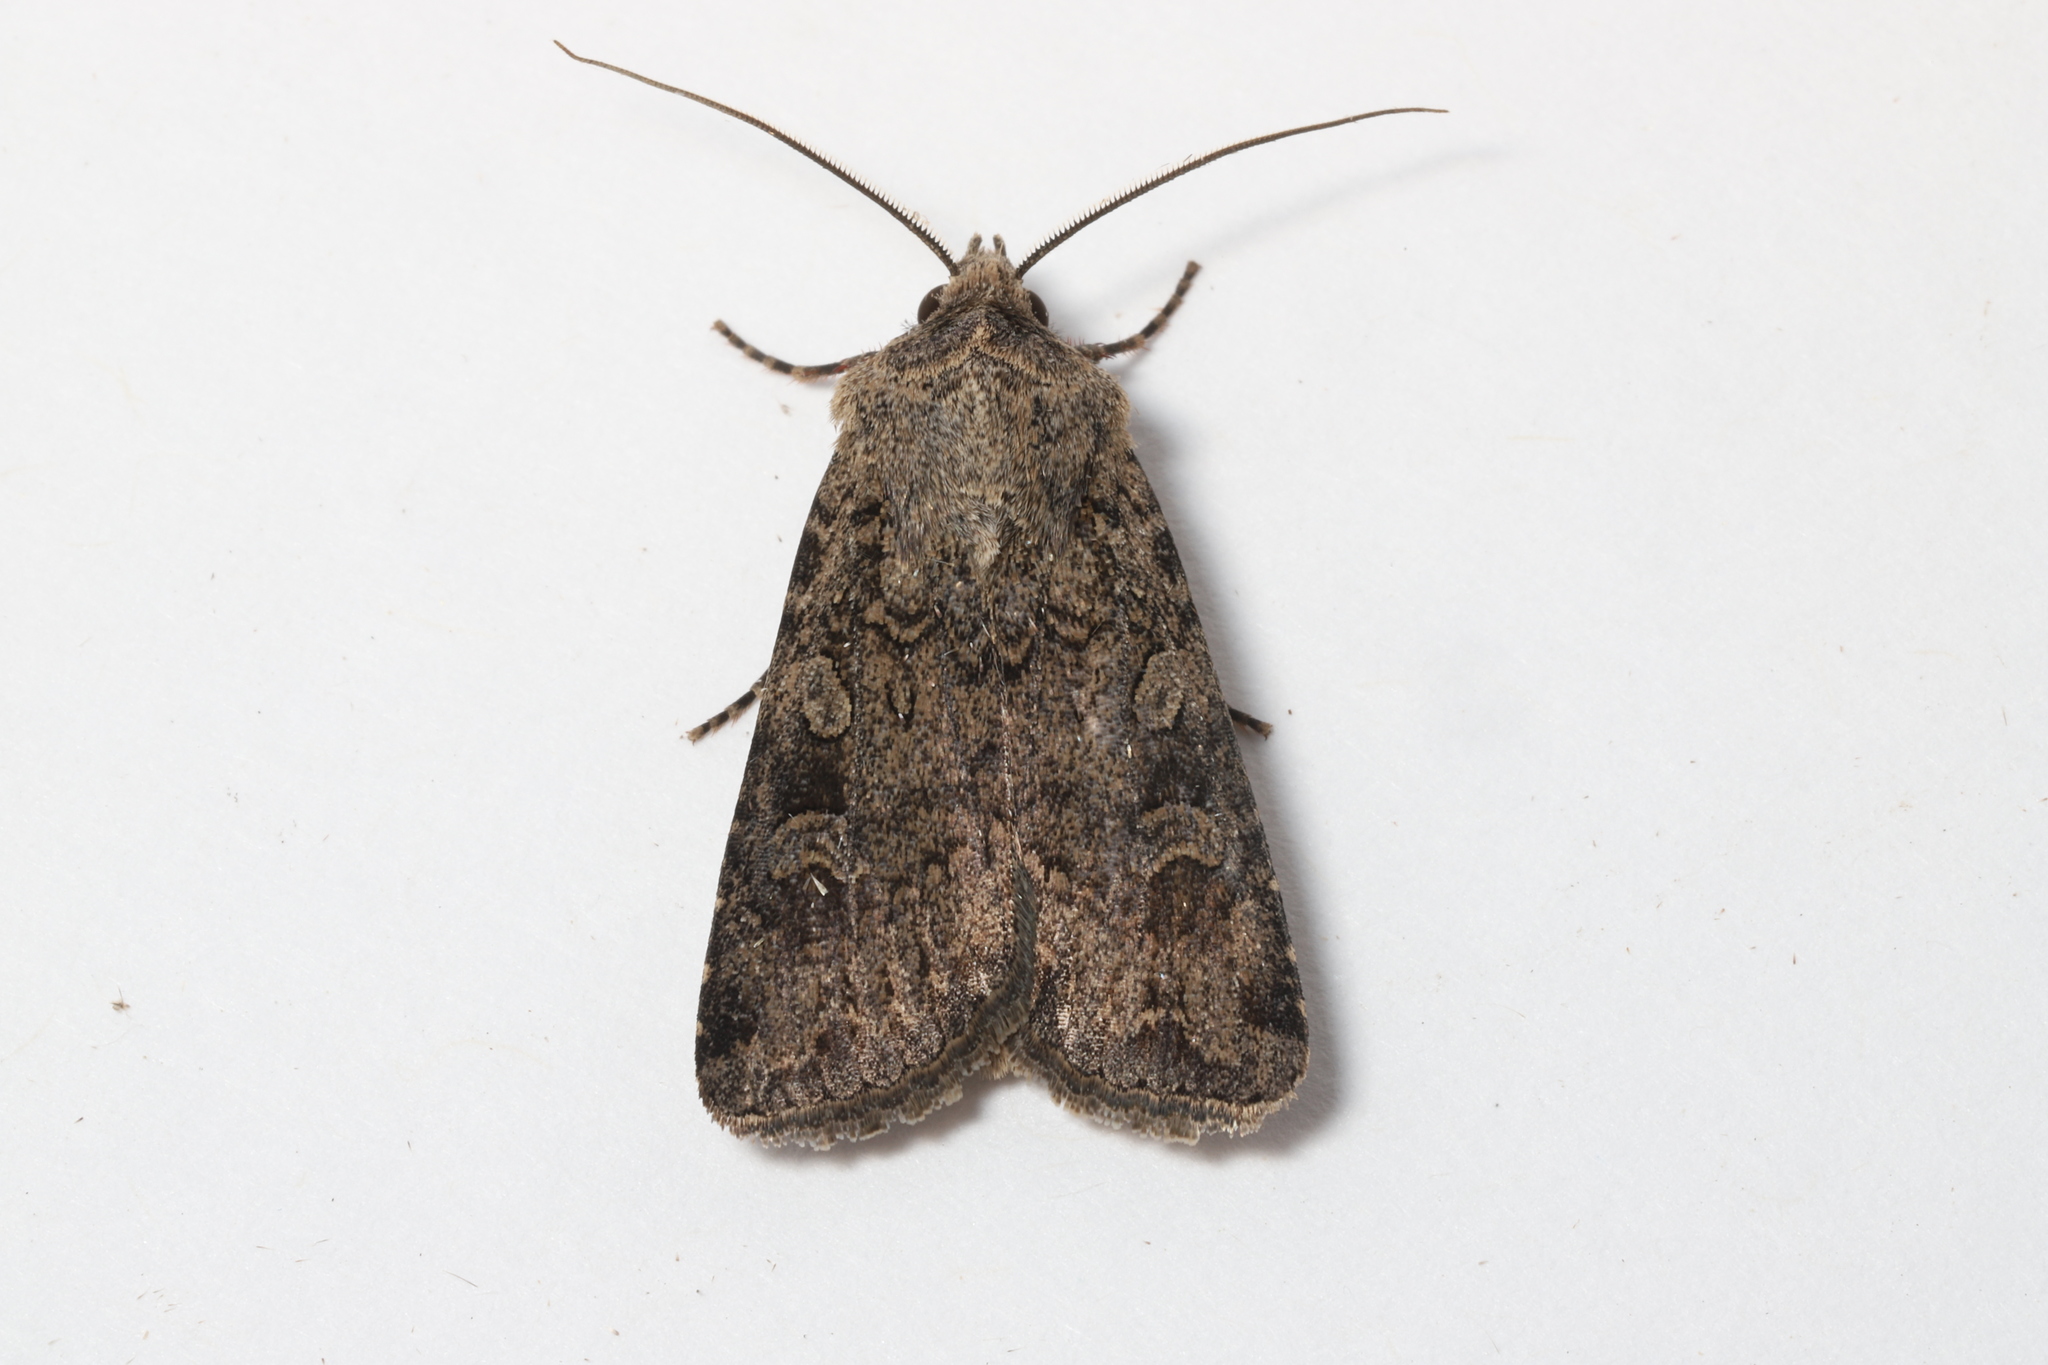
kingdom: Animalia
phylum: Arthropoda
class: Insecta
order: Lepidoptera
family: Noctuidae
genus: Euxoa
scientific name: Euxoa messoria
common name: Darksided cutworm
